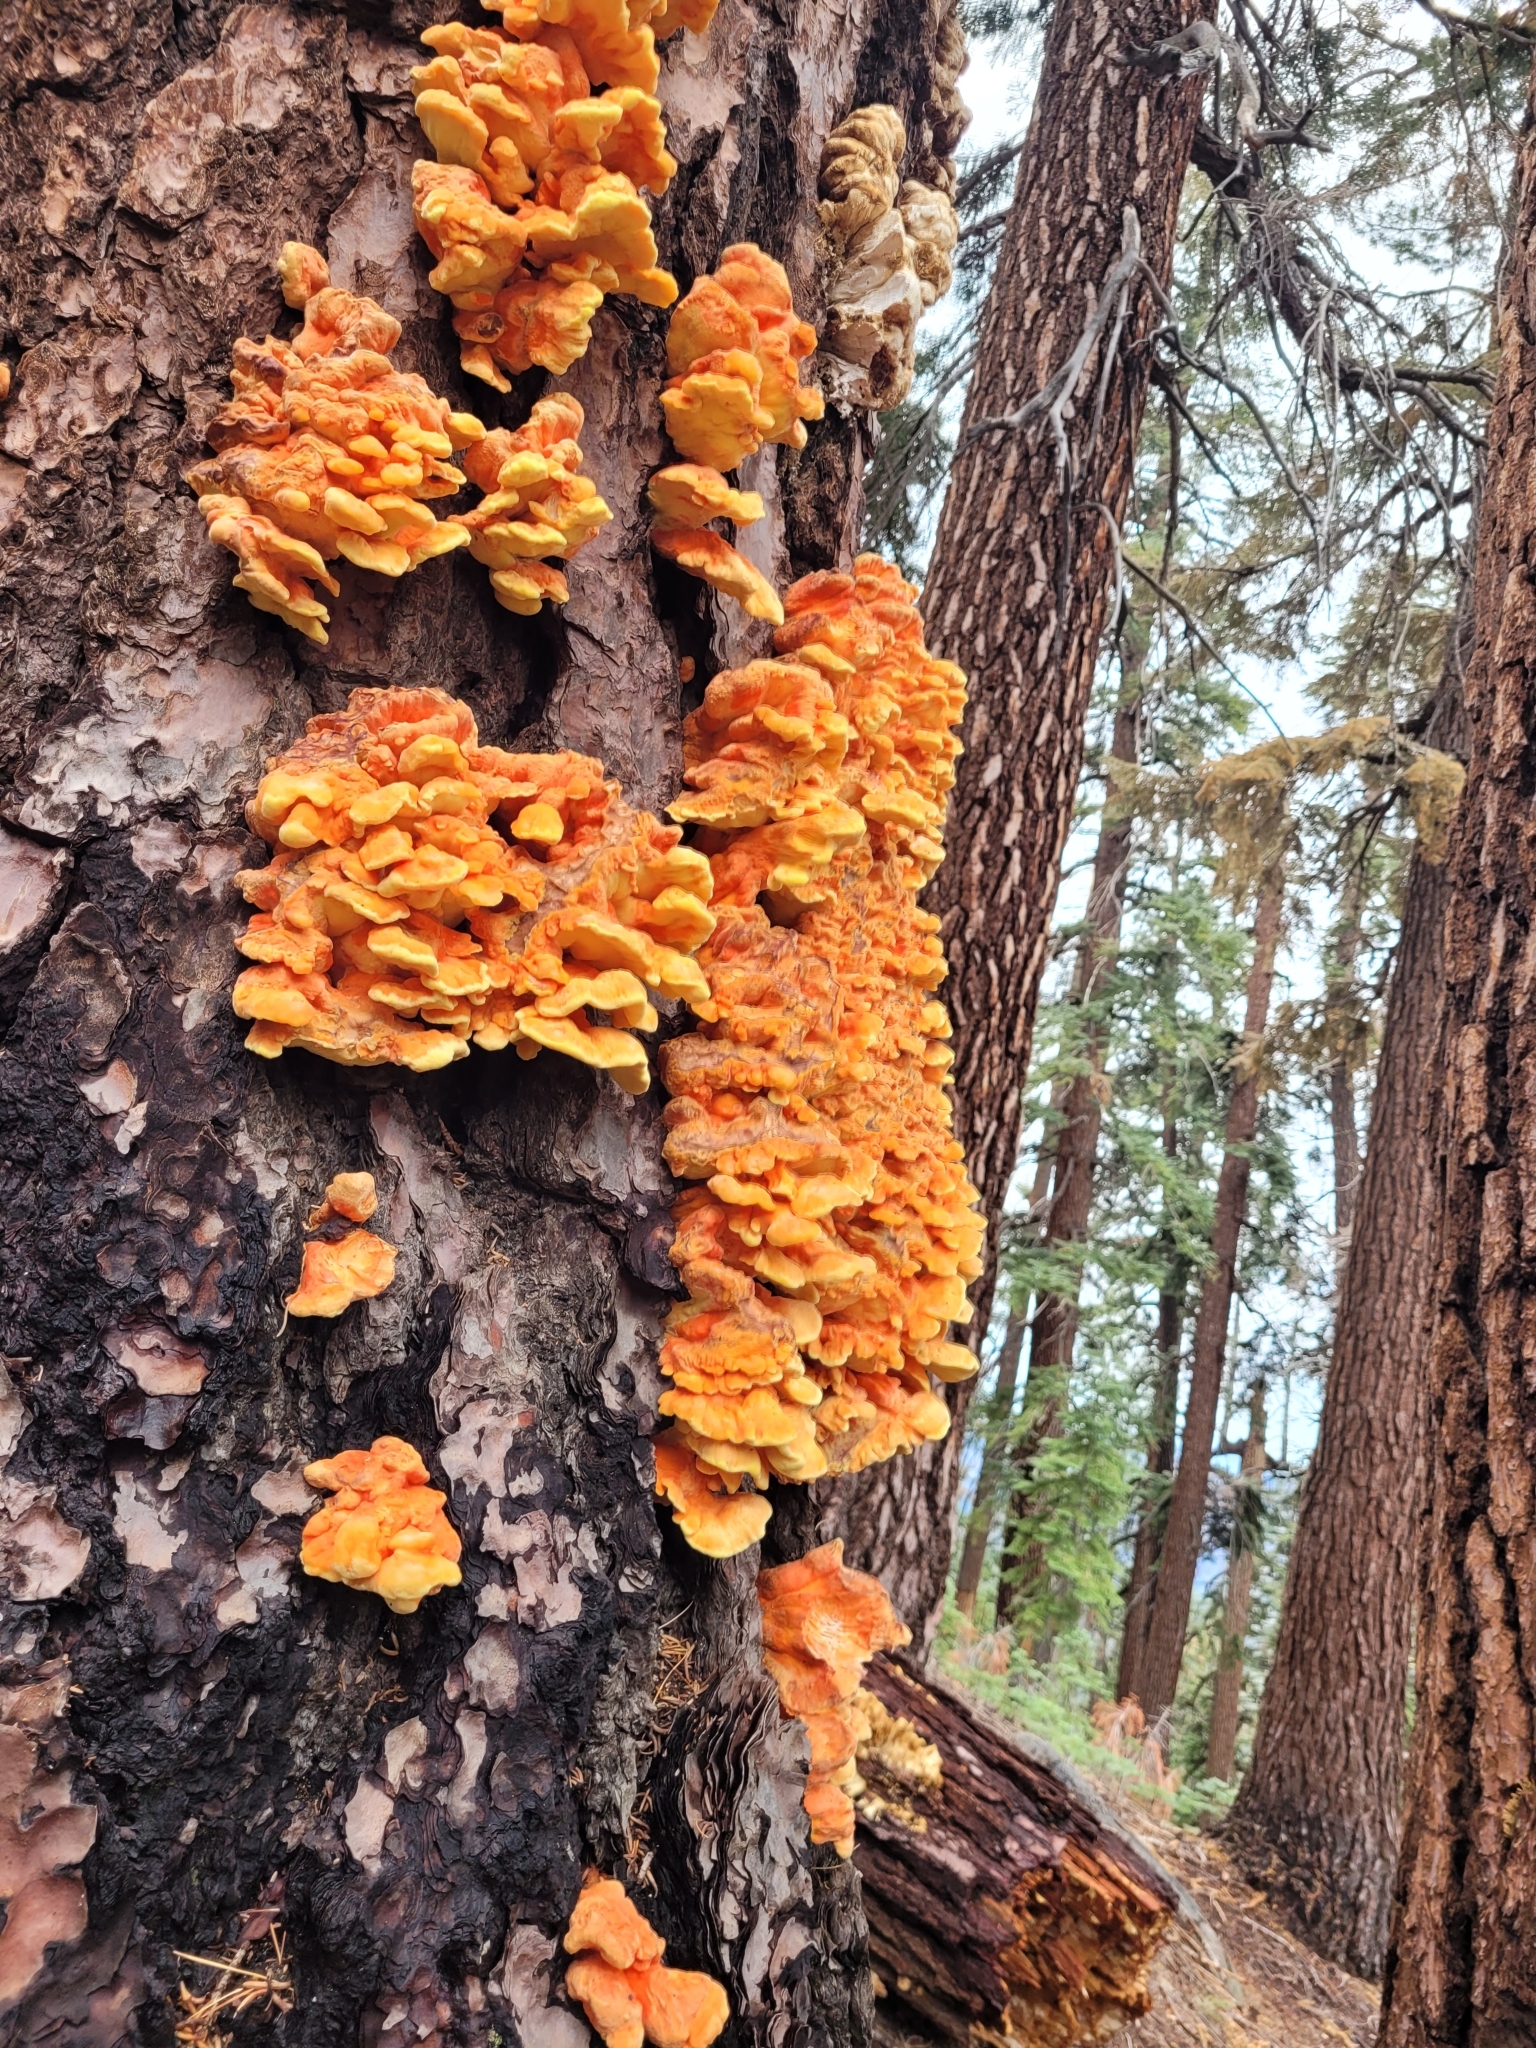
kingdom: Fungi
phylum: Basidiomycota
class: Agaricomycetes
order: Polyporales
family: Laetiporaceae
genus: Laetiporus
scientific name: Laetiporus conifericola
